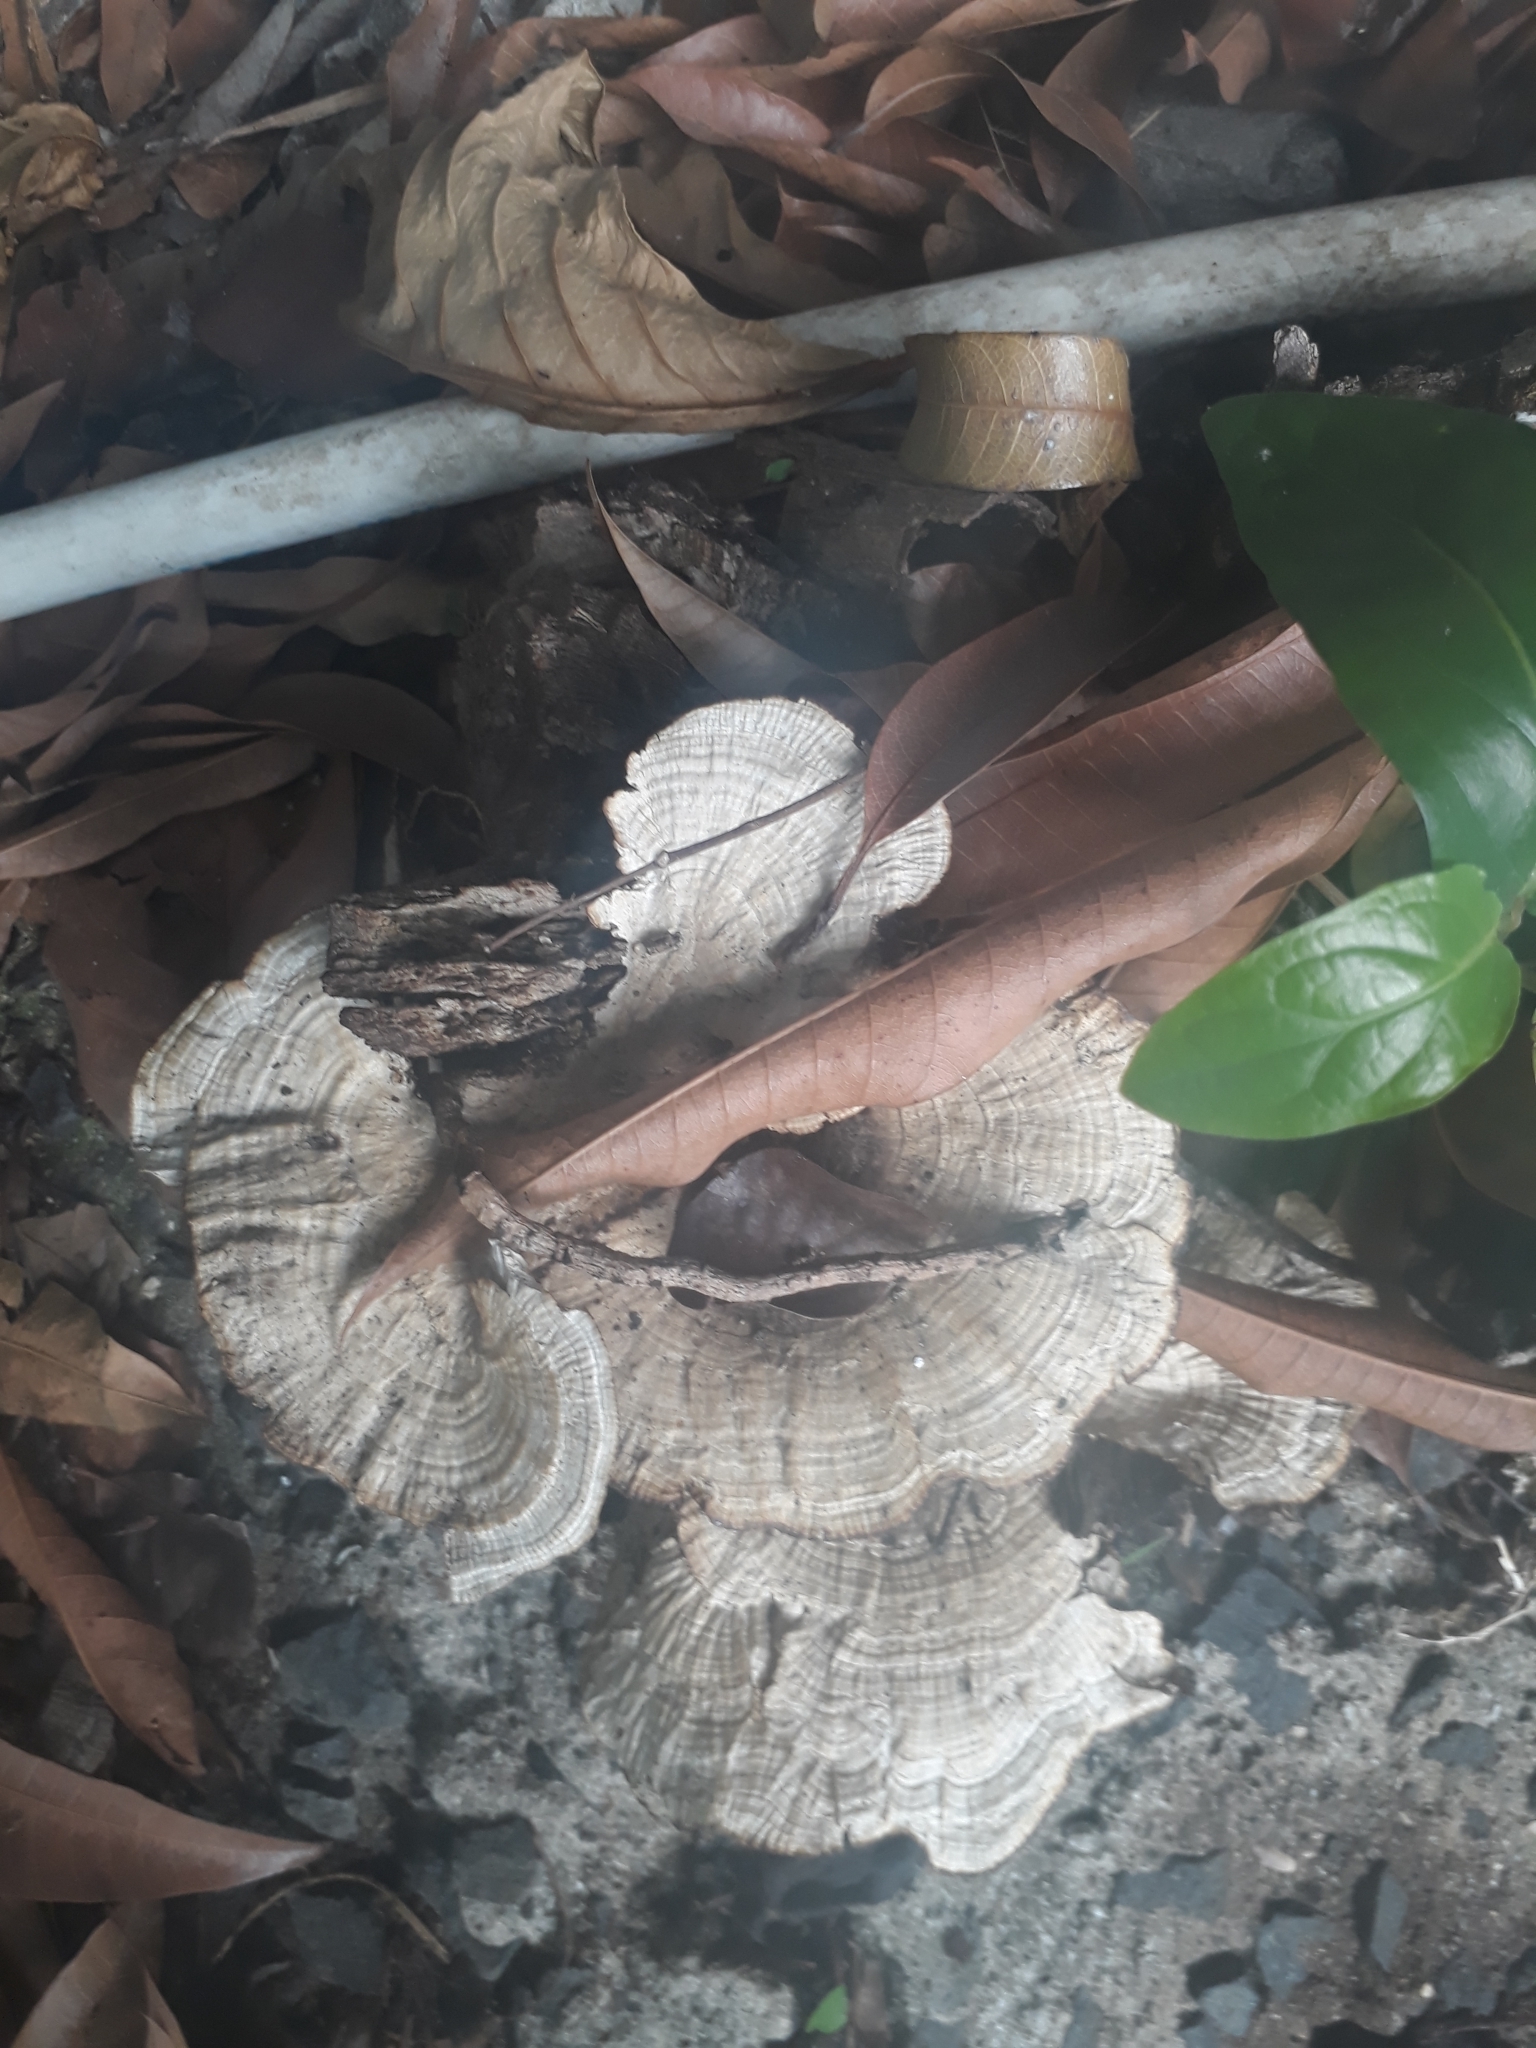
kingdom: Fungi
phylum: Basidiomycota
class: Agaricomycetes
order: Polyporales
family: Polyporaceae
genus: Trametes
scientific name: Trametes versicolor
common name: Turkeytail
